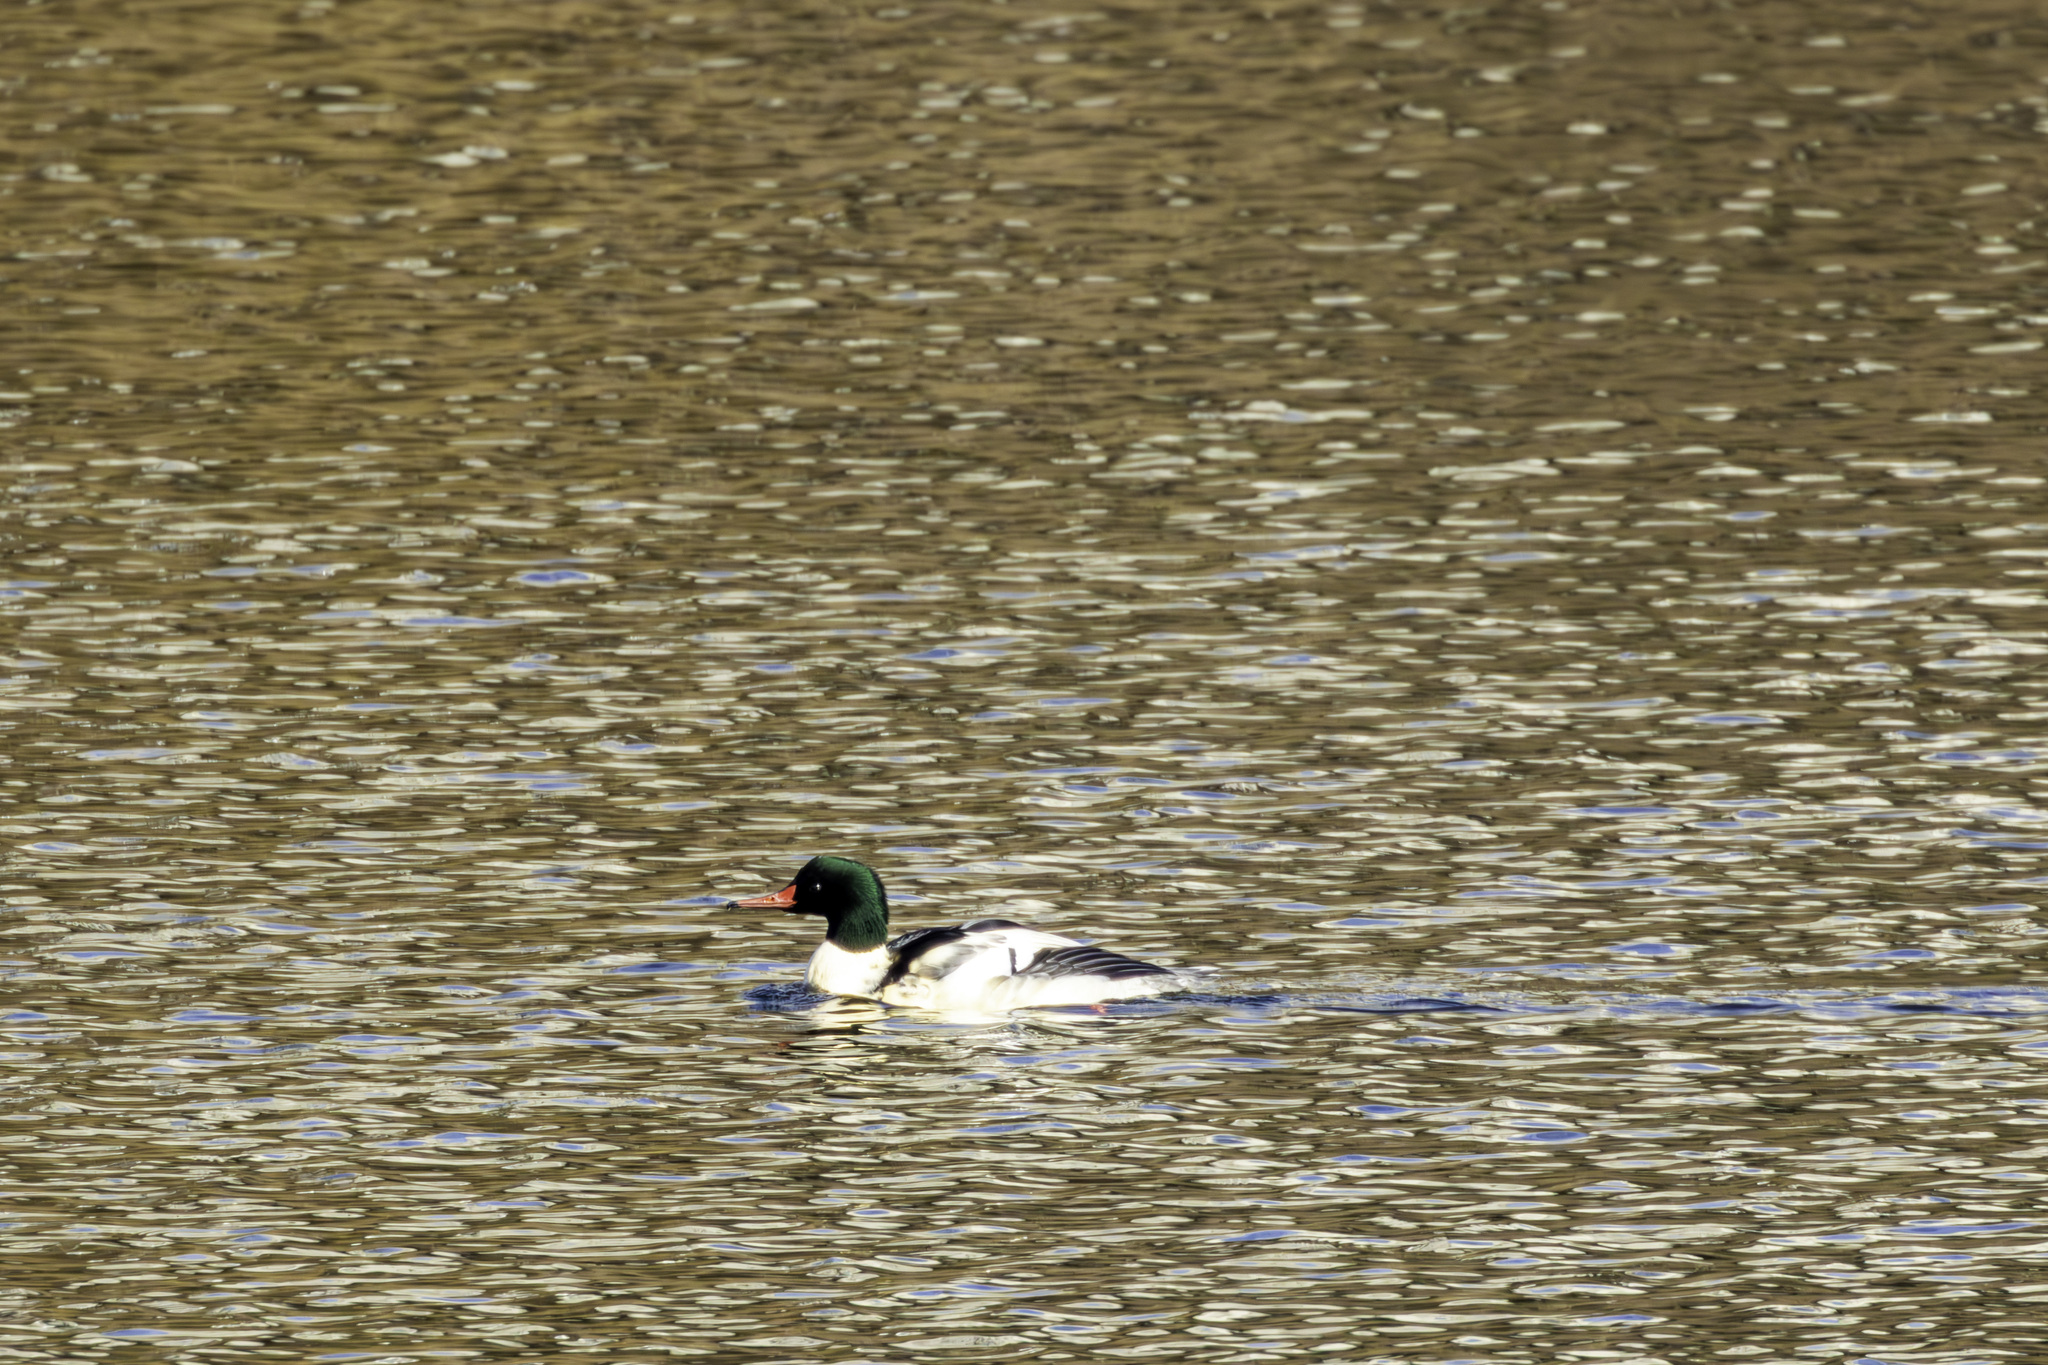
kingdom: Animalia
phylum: Chordata
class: Aves
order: Anseriformes
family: Anatidae
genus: Mergus
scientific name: Mergus merganser
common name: Common merganser
